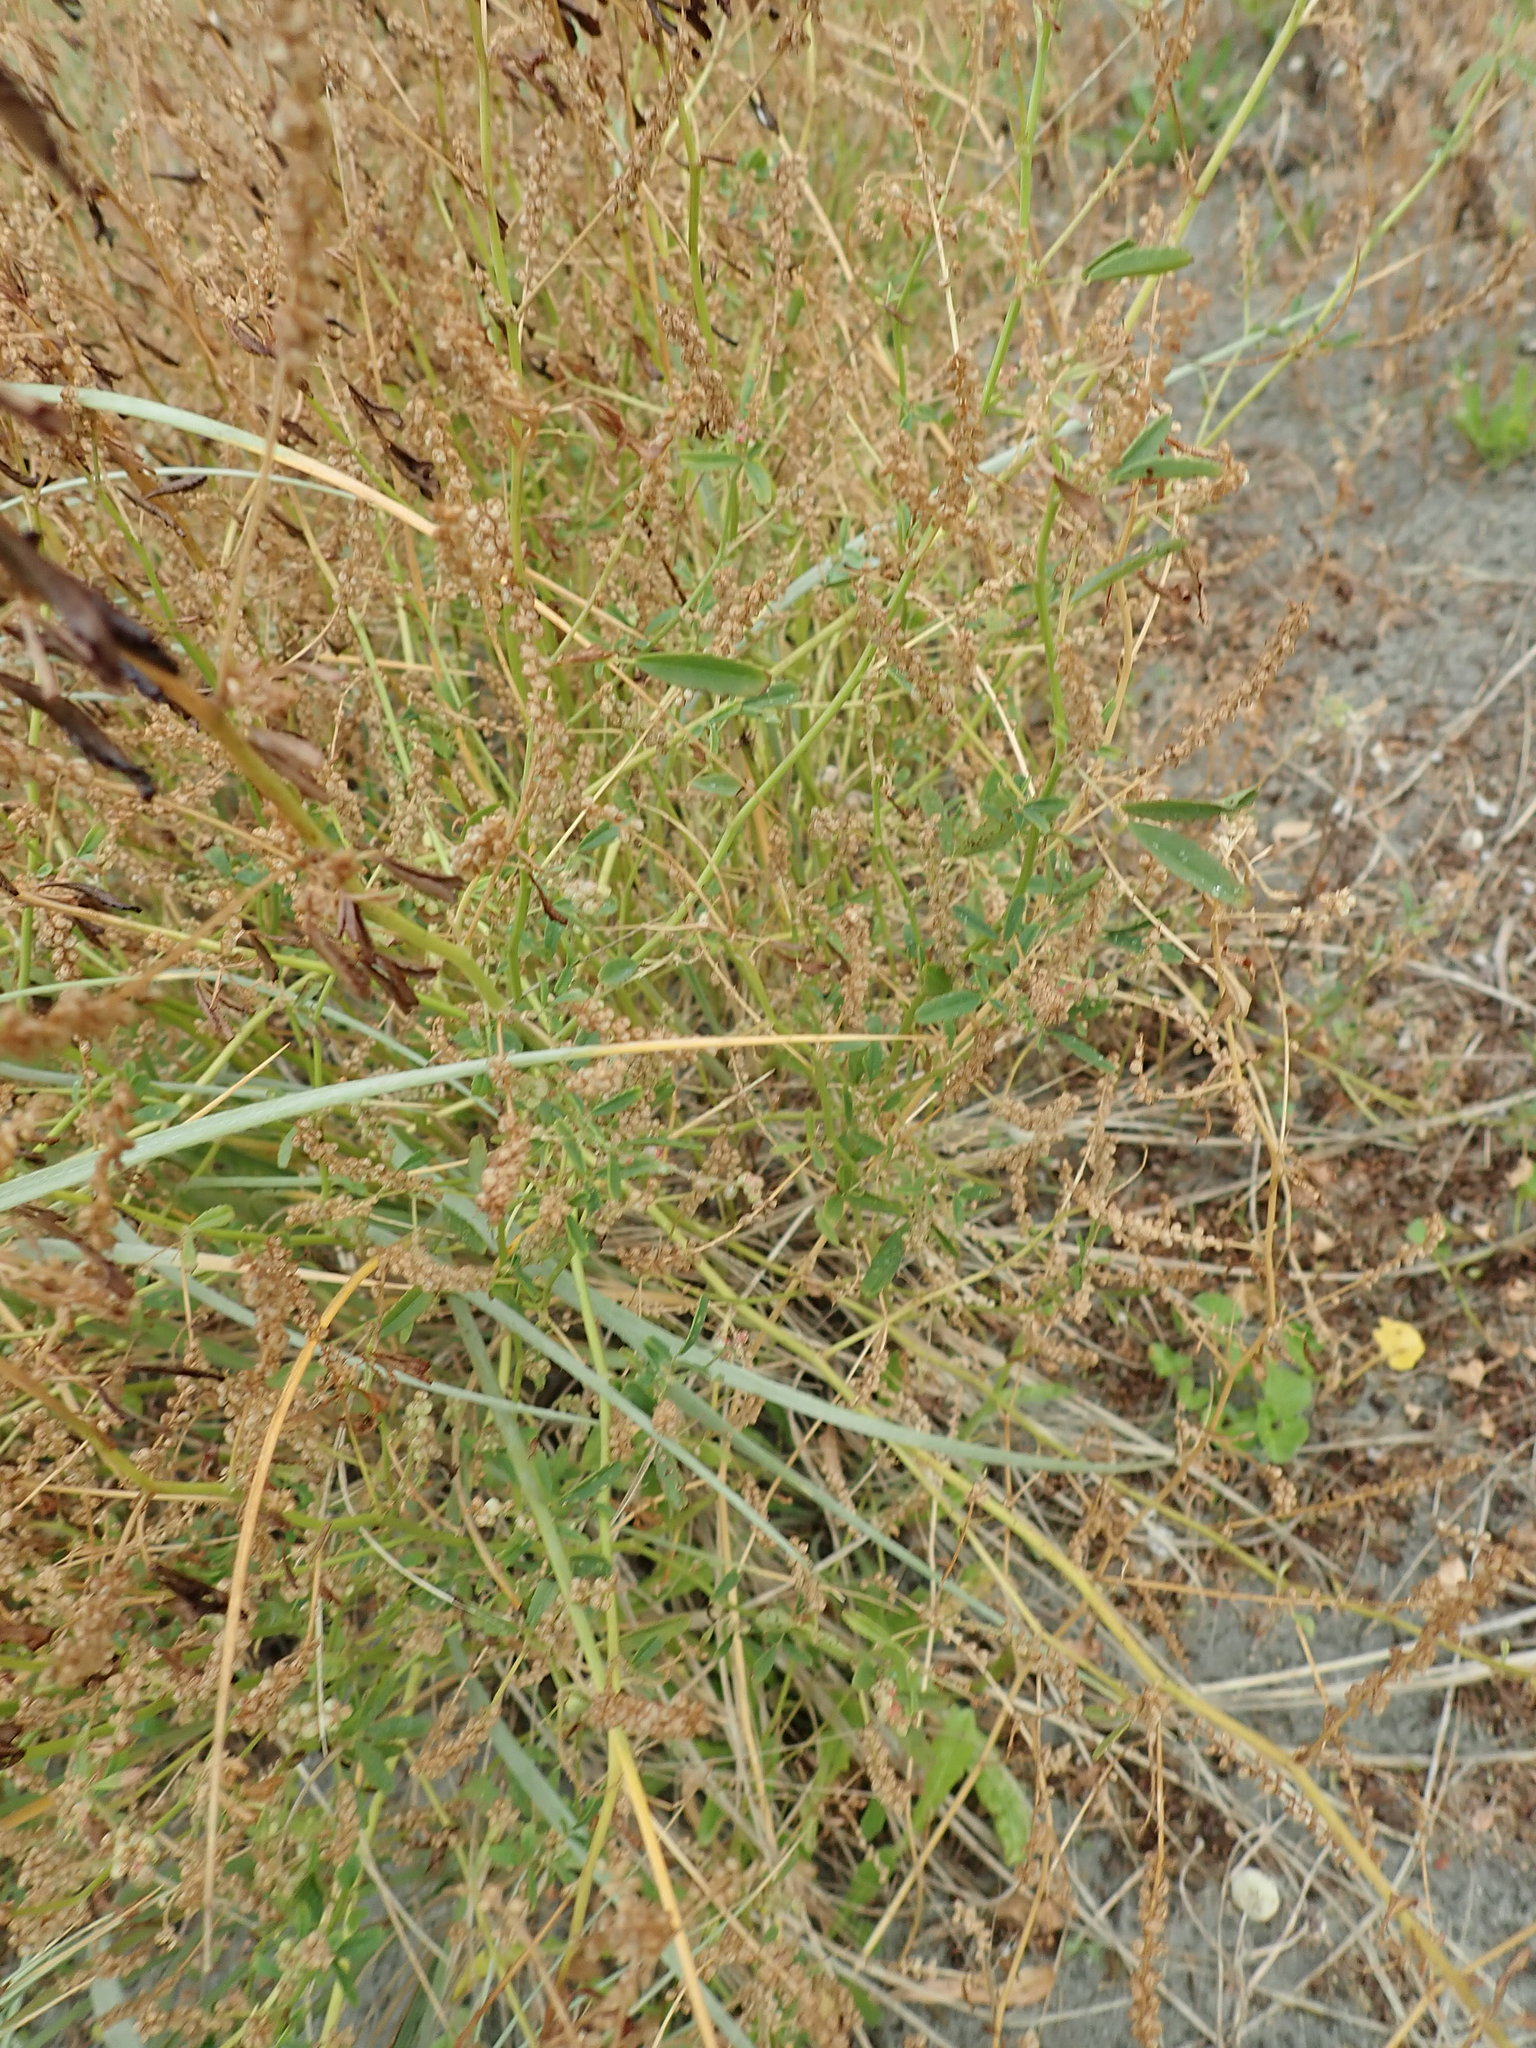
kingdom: Plantae
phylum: Tracheophyta
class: Magnoliopsida
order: Fabales
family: Fabaceae
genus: Melilotus
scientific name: Melilotus indicus
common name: Small melilot
